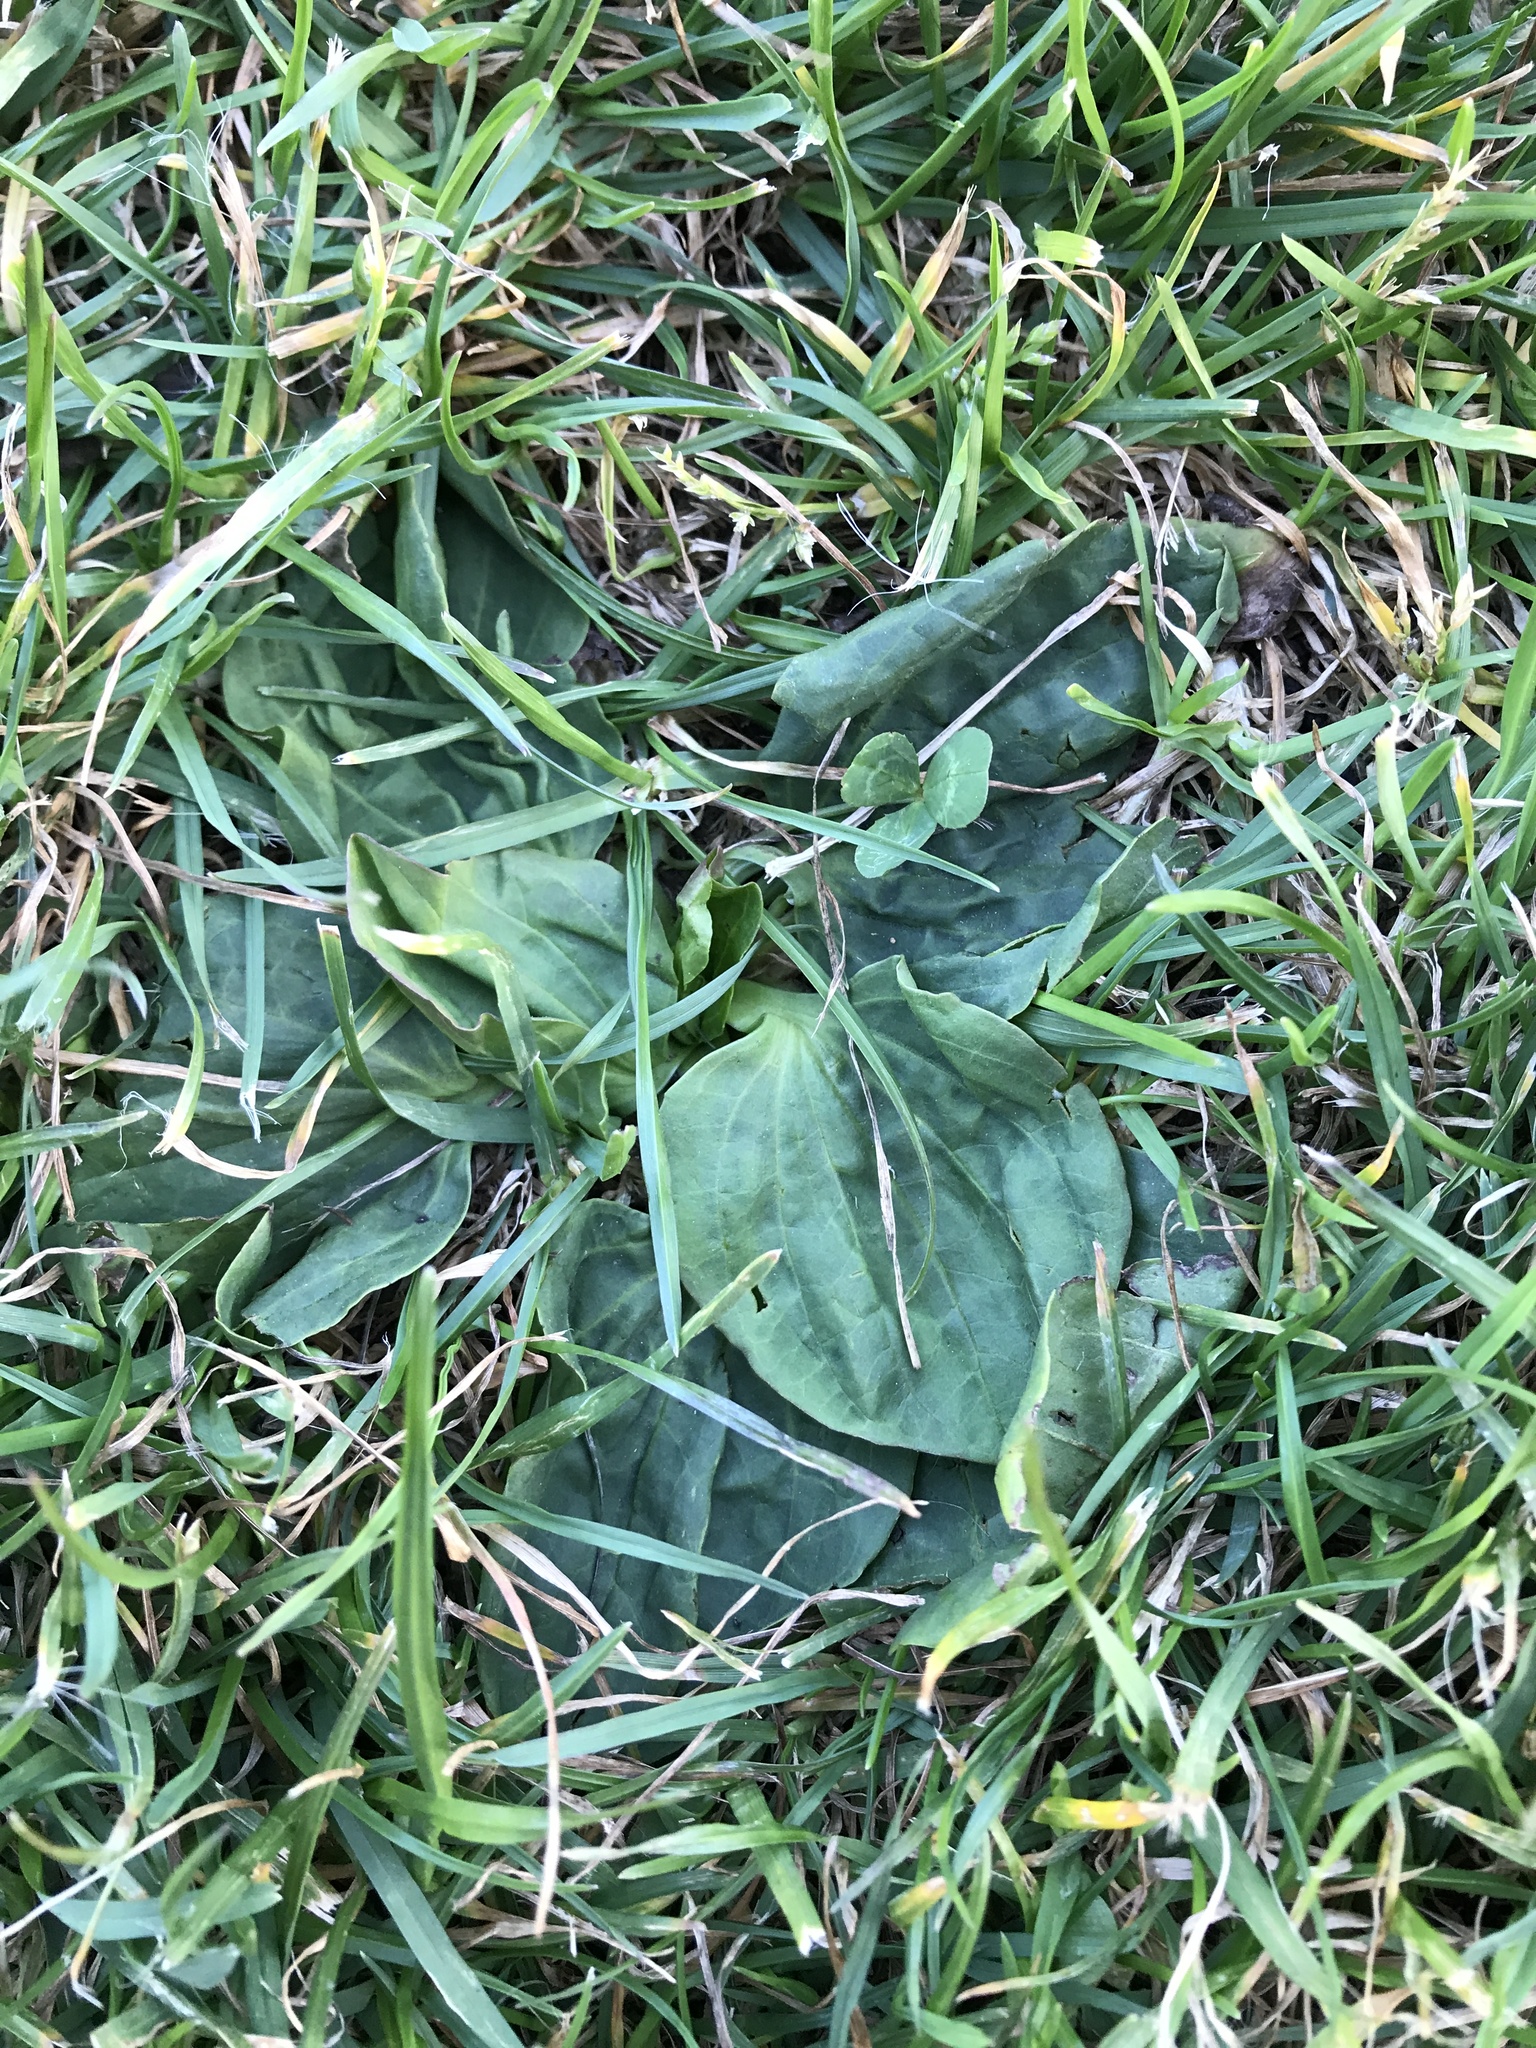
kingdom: Plantae
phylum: Tracheophyta
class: Magnoliopsida
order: Lamiales
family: Plantaginaceae
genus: Plantago
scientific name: Plantago major
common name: Common plantain
